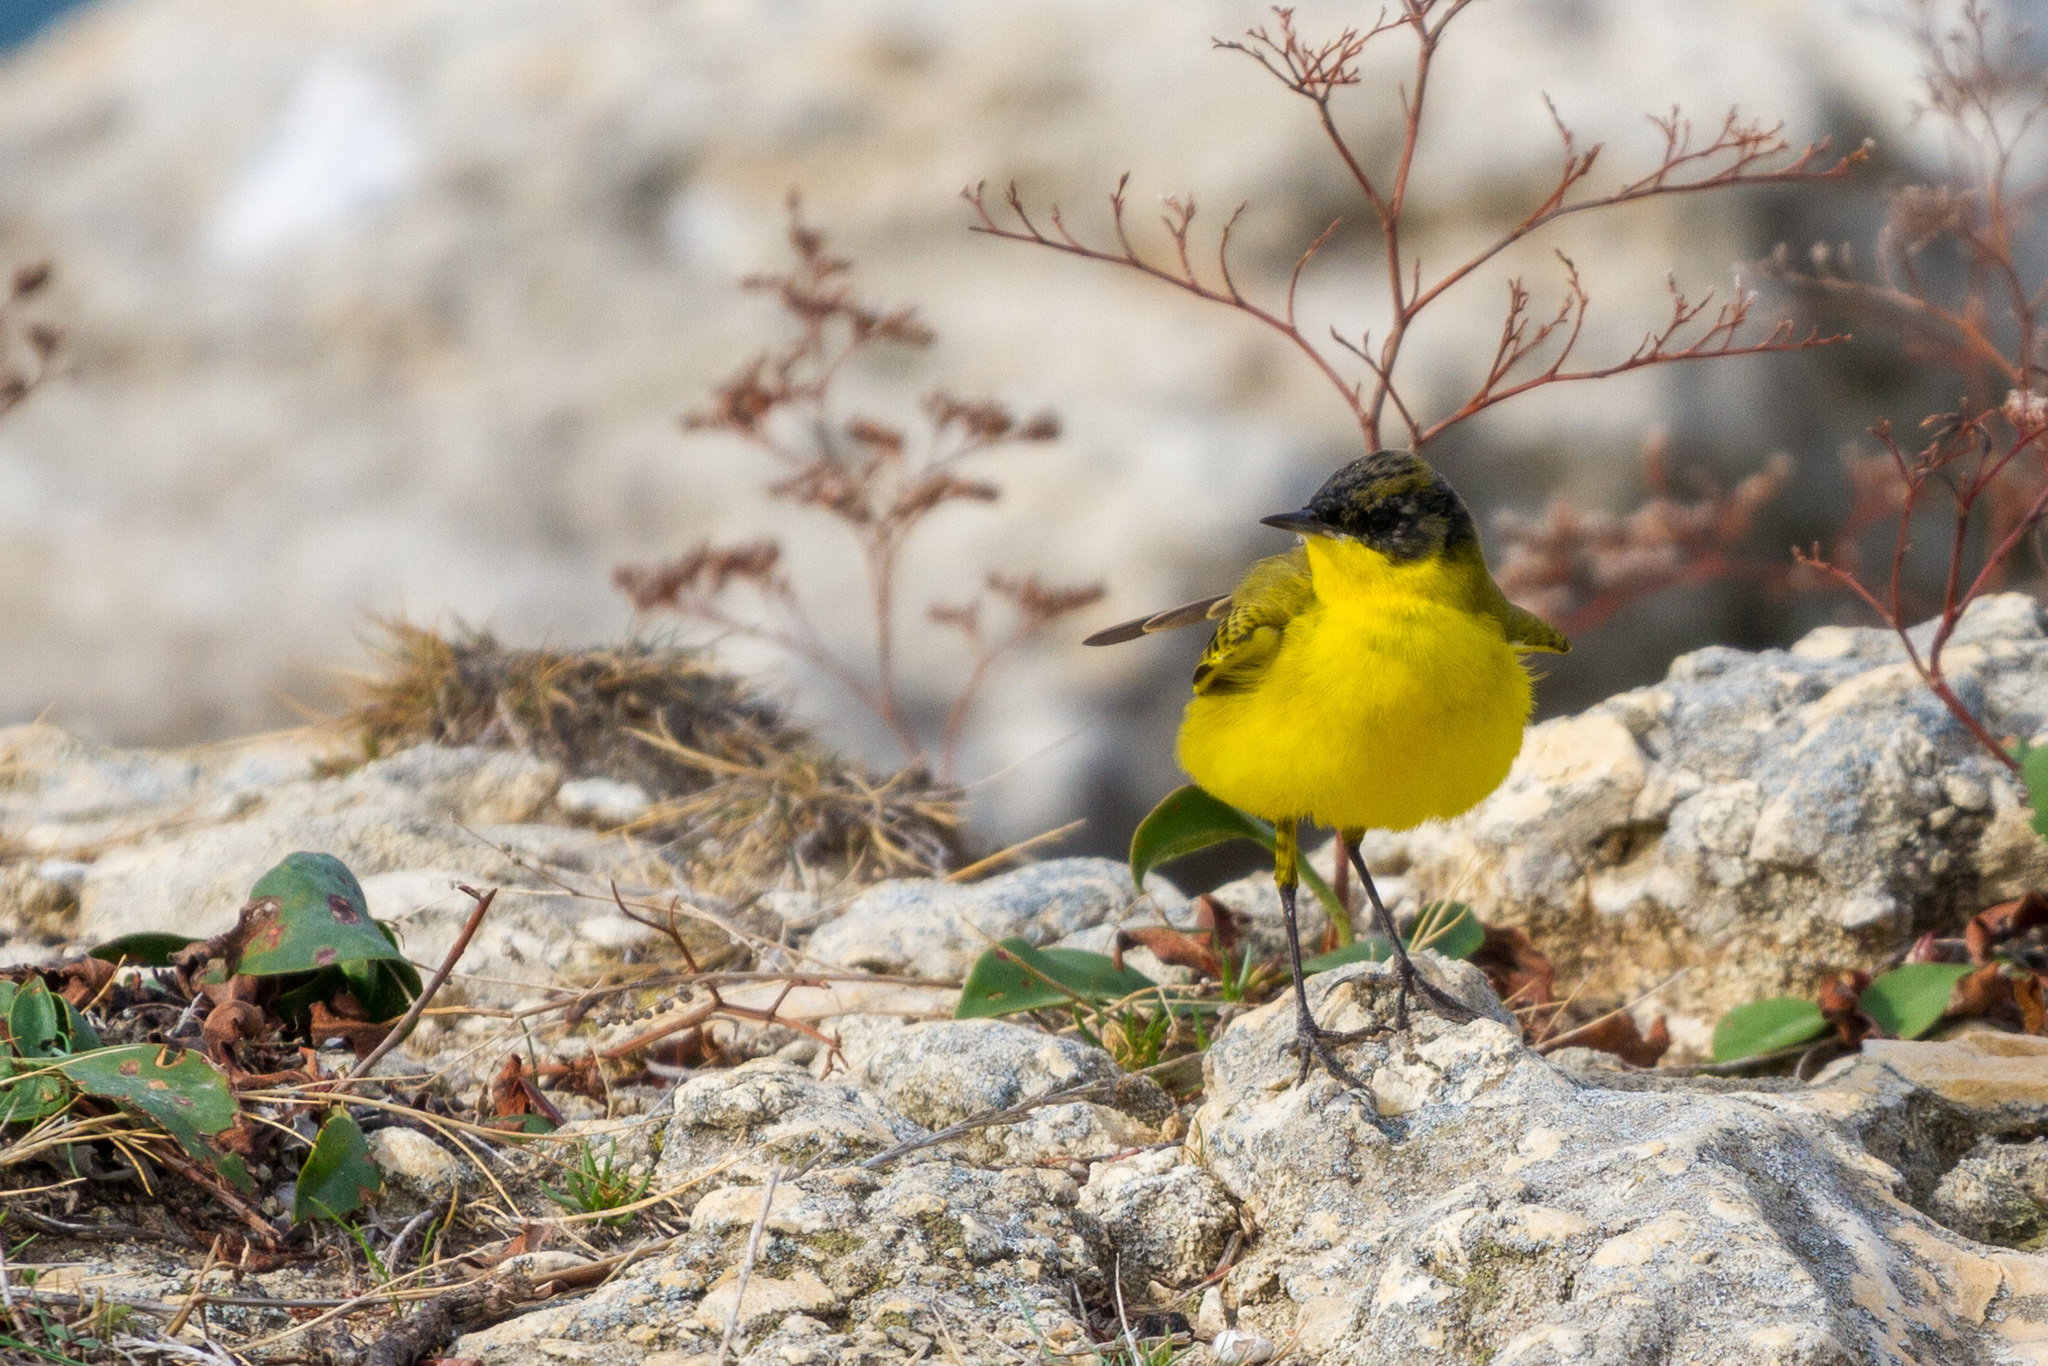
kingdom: Animalia
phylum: Chordata
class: Aves
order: Passeriformes
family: Motacillidae
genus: Motacilla
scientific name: Motacilla flava
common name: Western yellow wagtail
